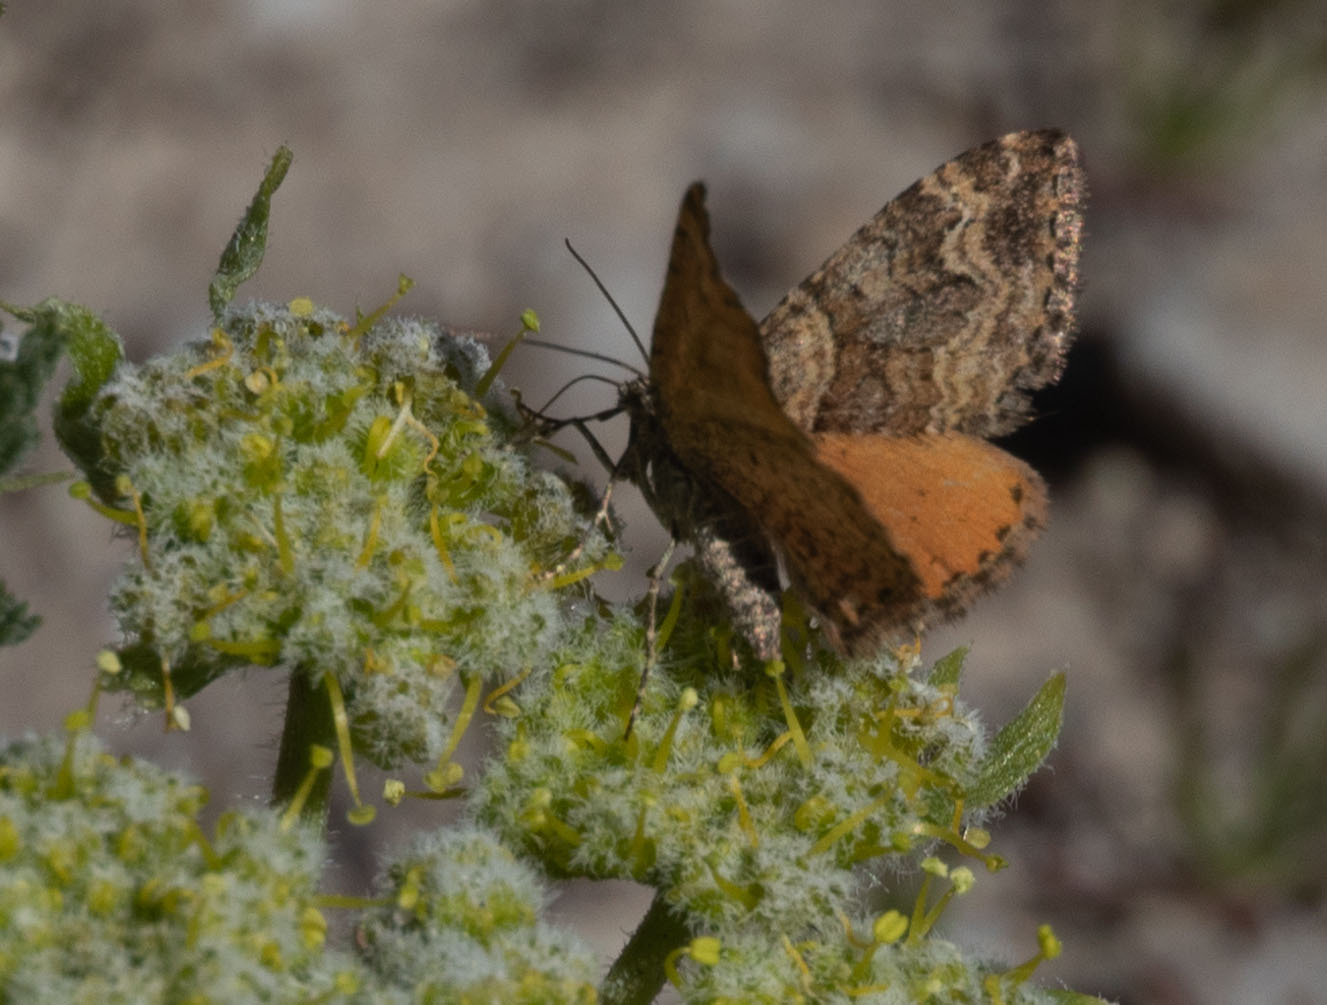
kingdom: Animalia
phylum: Arthropoda
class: Insecta
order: Lepidoptera
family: Geometridae
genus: Epirrhoe
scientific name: Epirrhoe plebeculata
